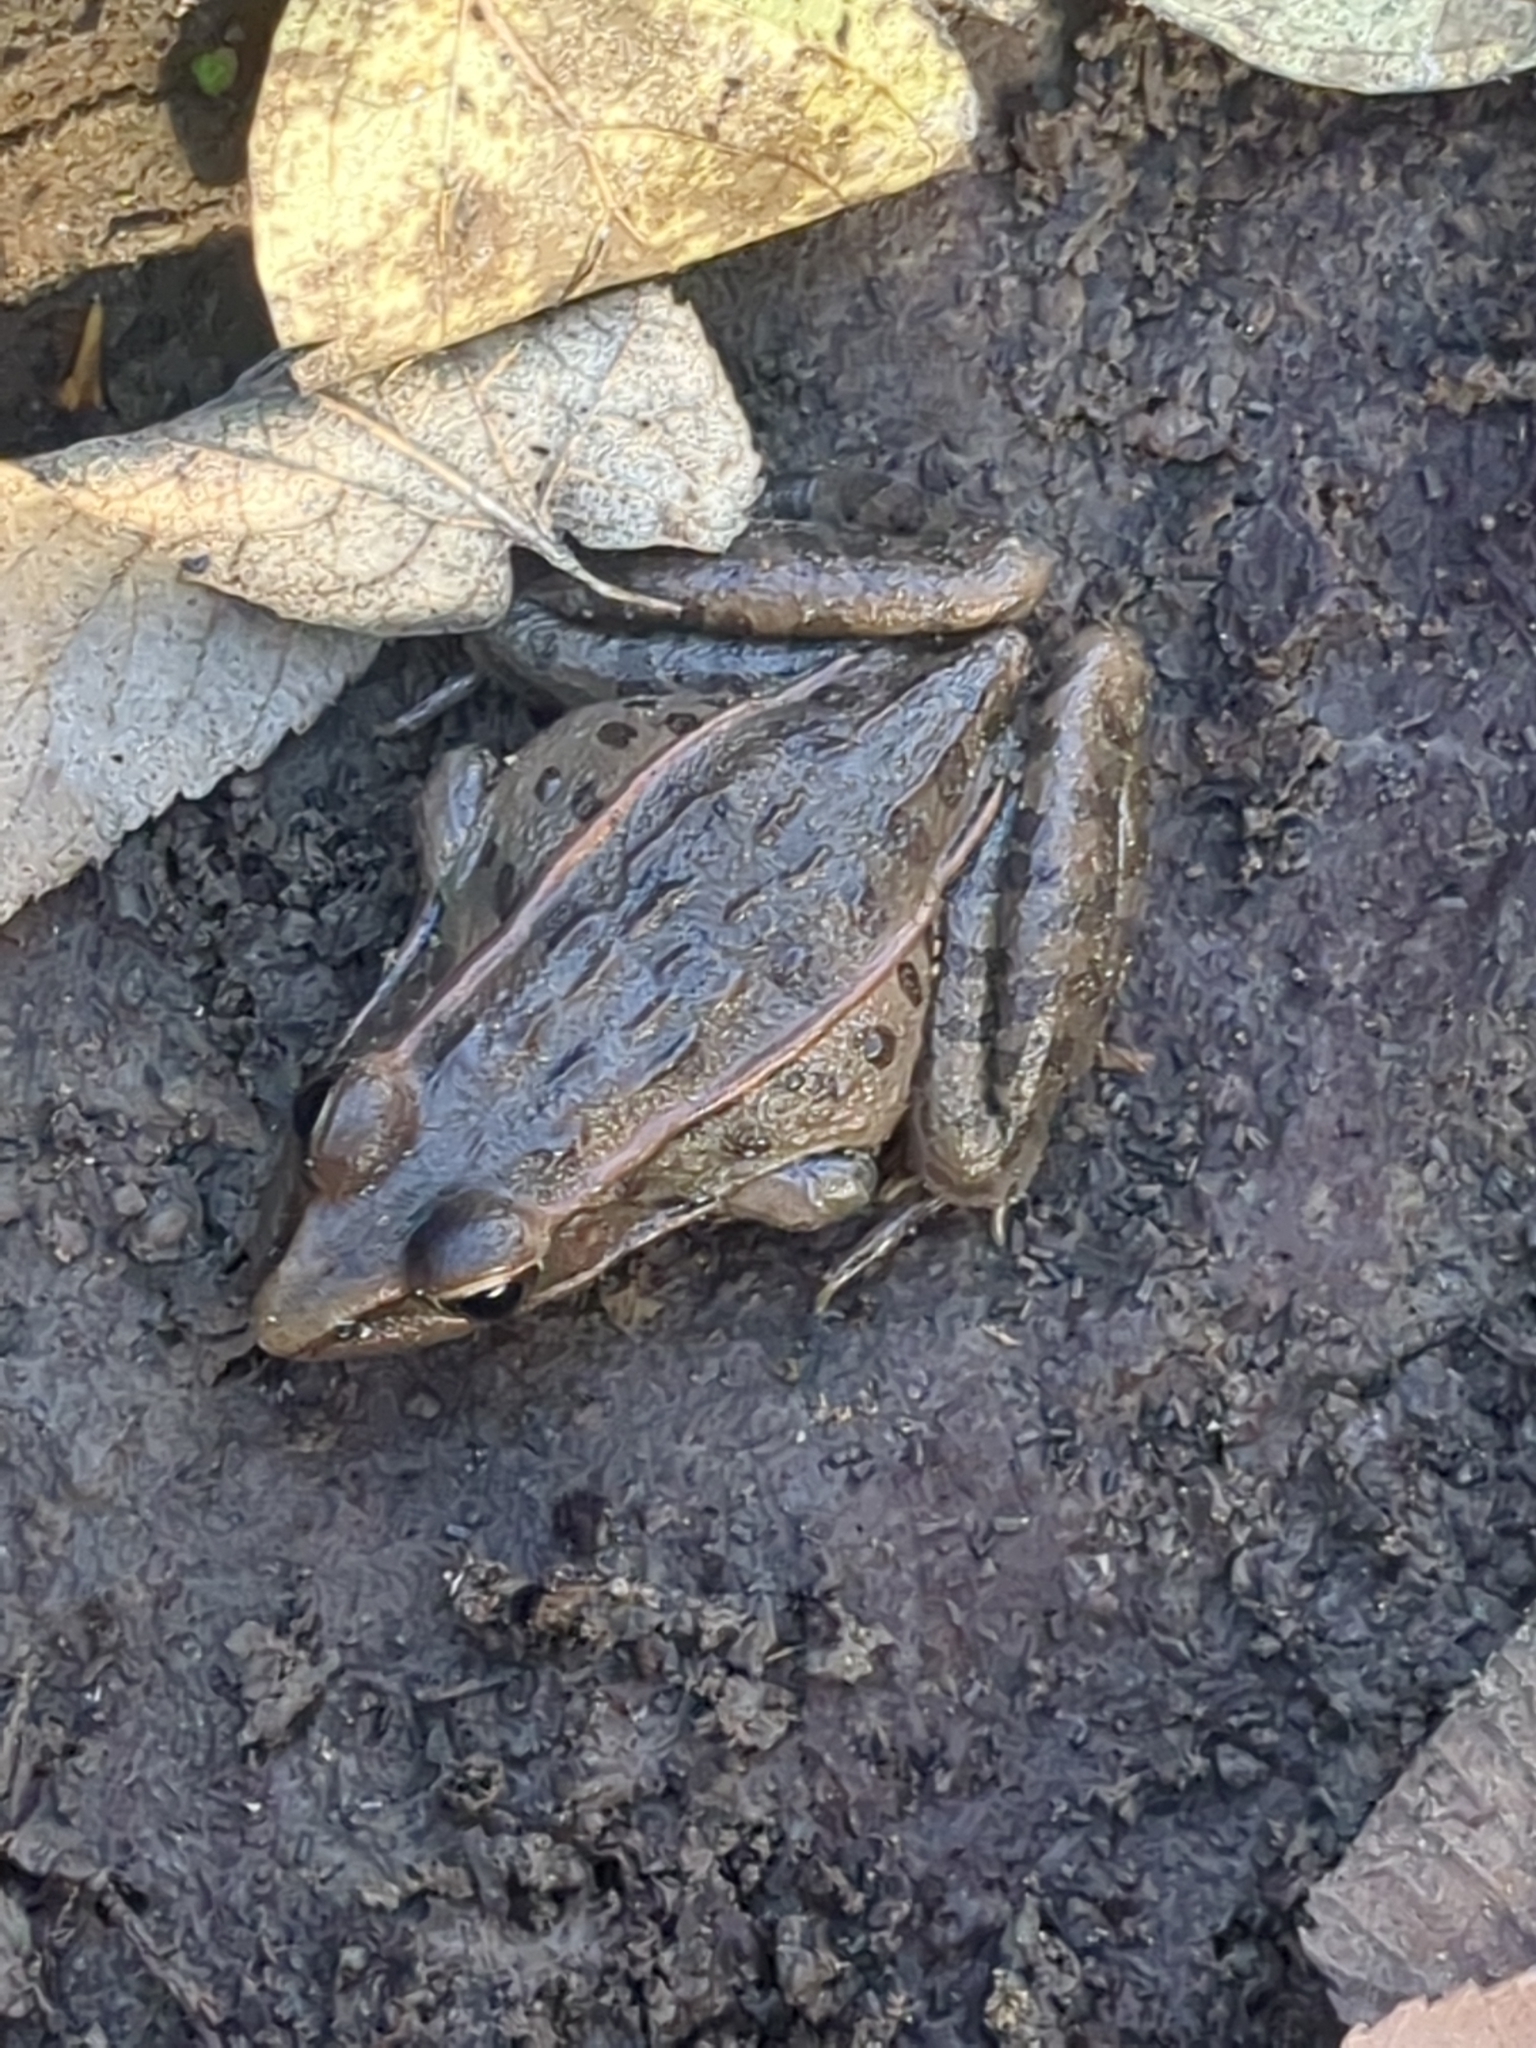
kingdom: Animalia
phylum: Chordata
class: Amphibia
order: Anura
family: Ranidae
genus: Lithobates
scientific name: Lithobates sphenocephalus
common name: Southern leopard frog
